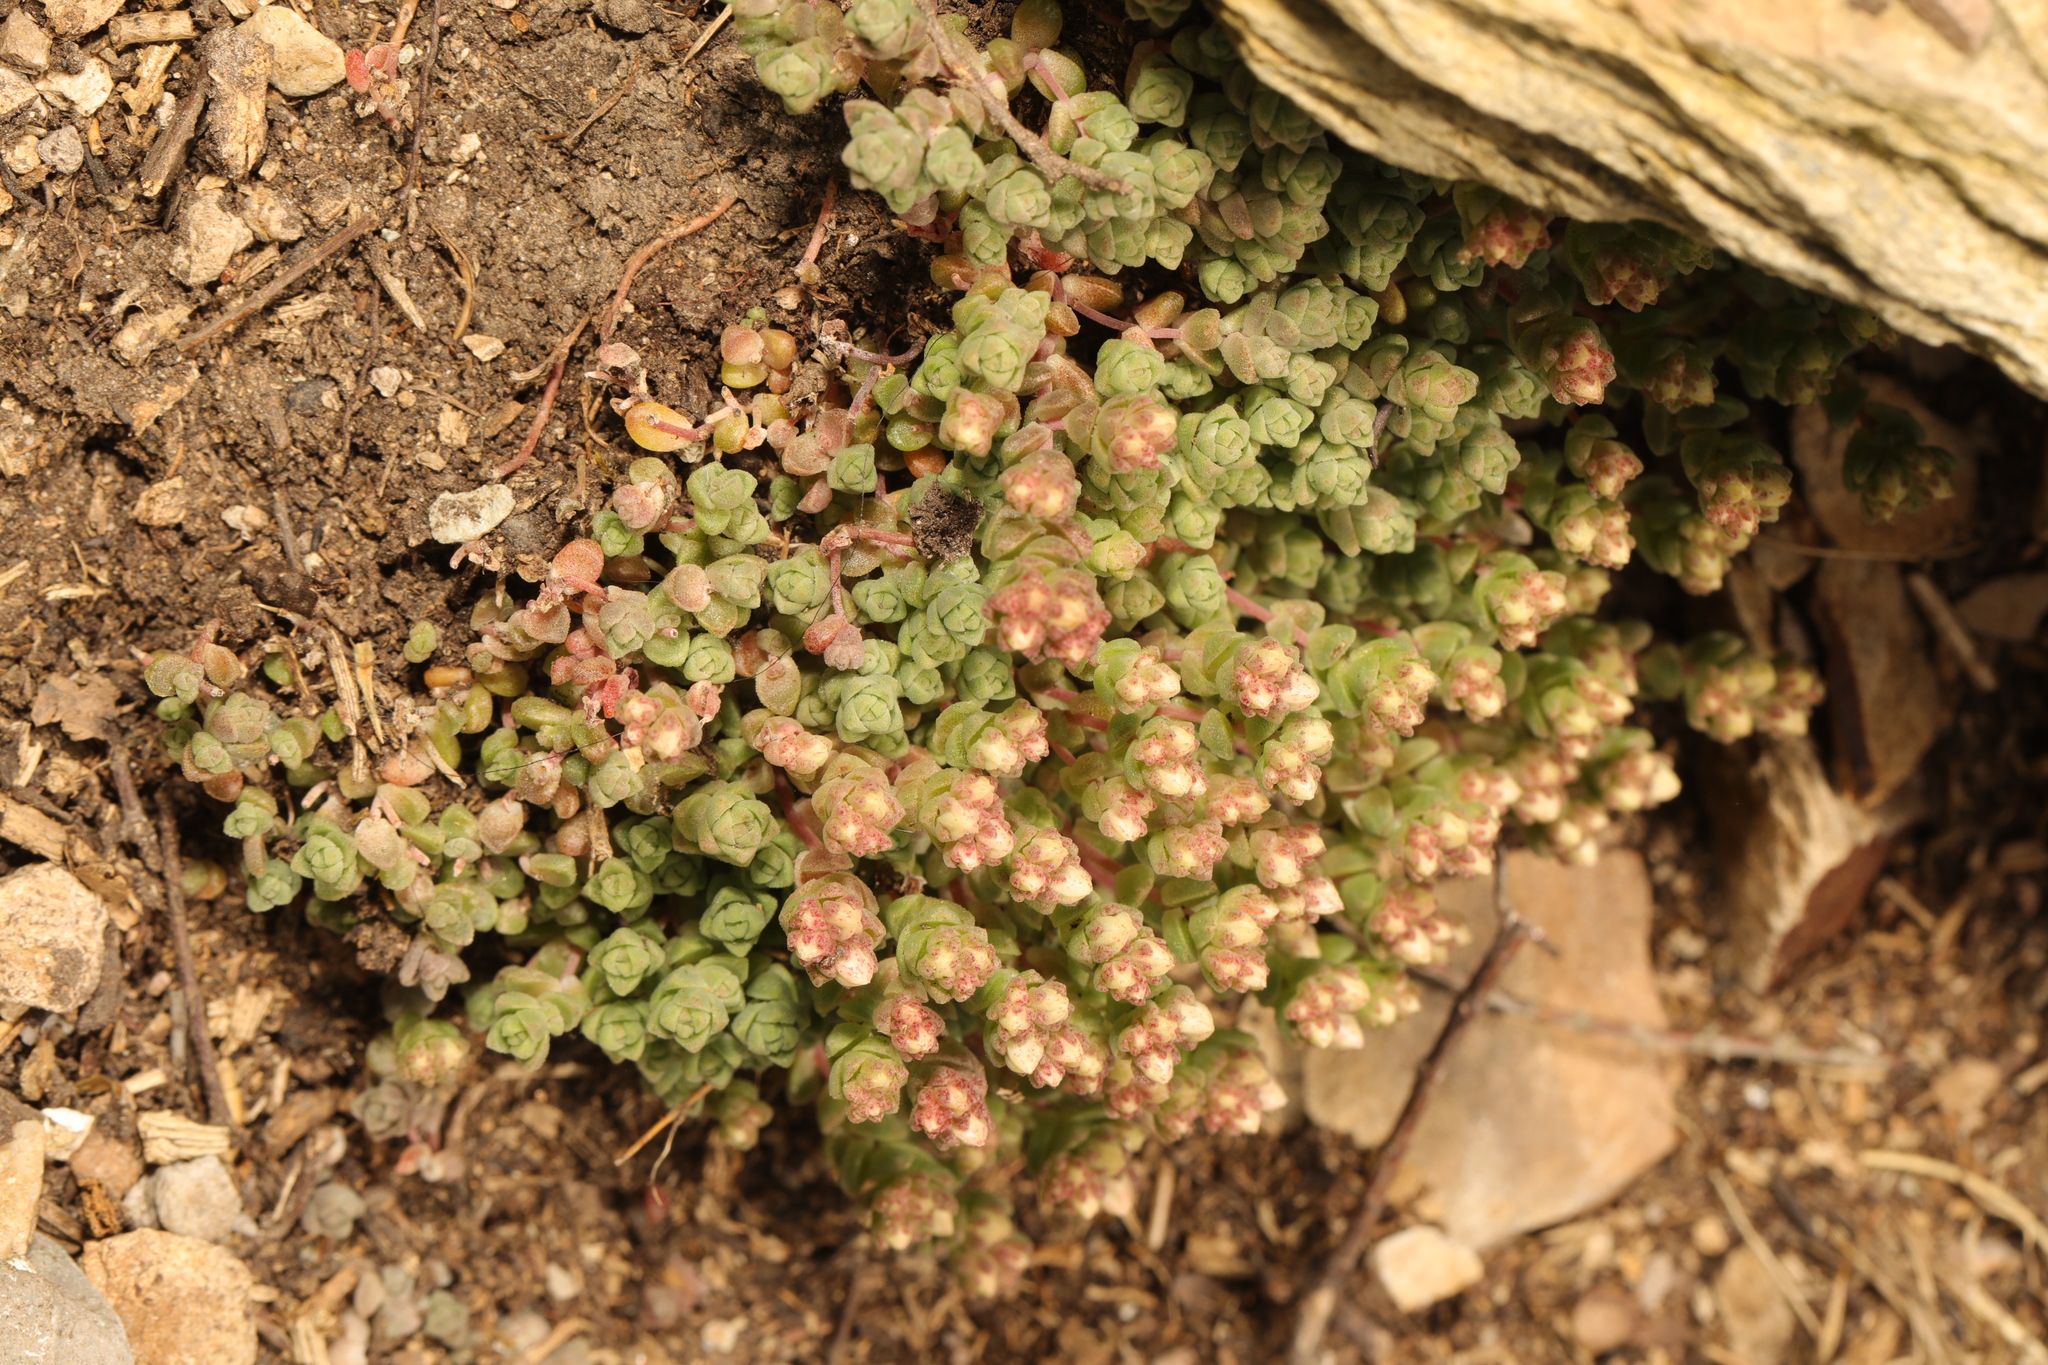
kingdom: Plantae
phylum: Tracheophyta
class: Magnoliopsida
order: Saxifragales
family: Crassulaceae
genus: Sedum
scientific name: Sedum anglicum
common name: English stonecrop
